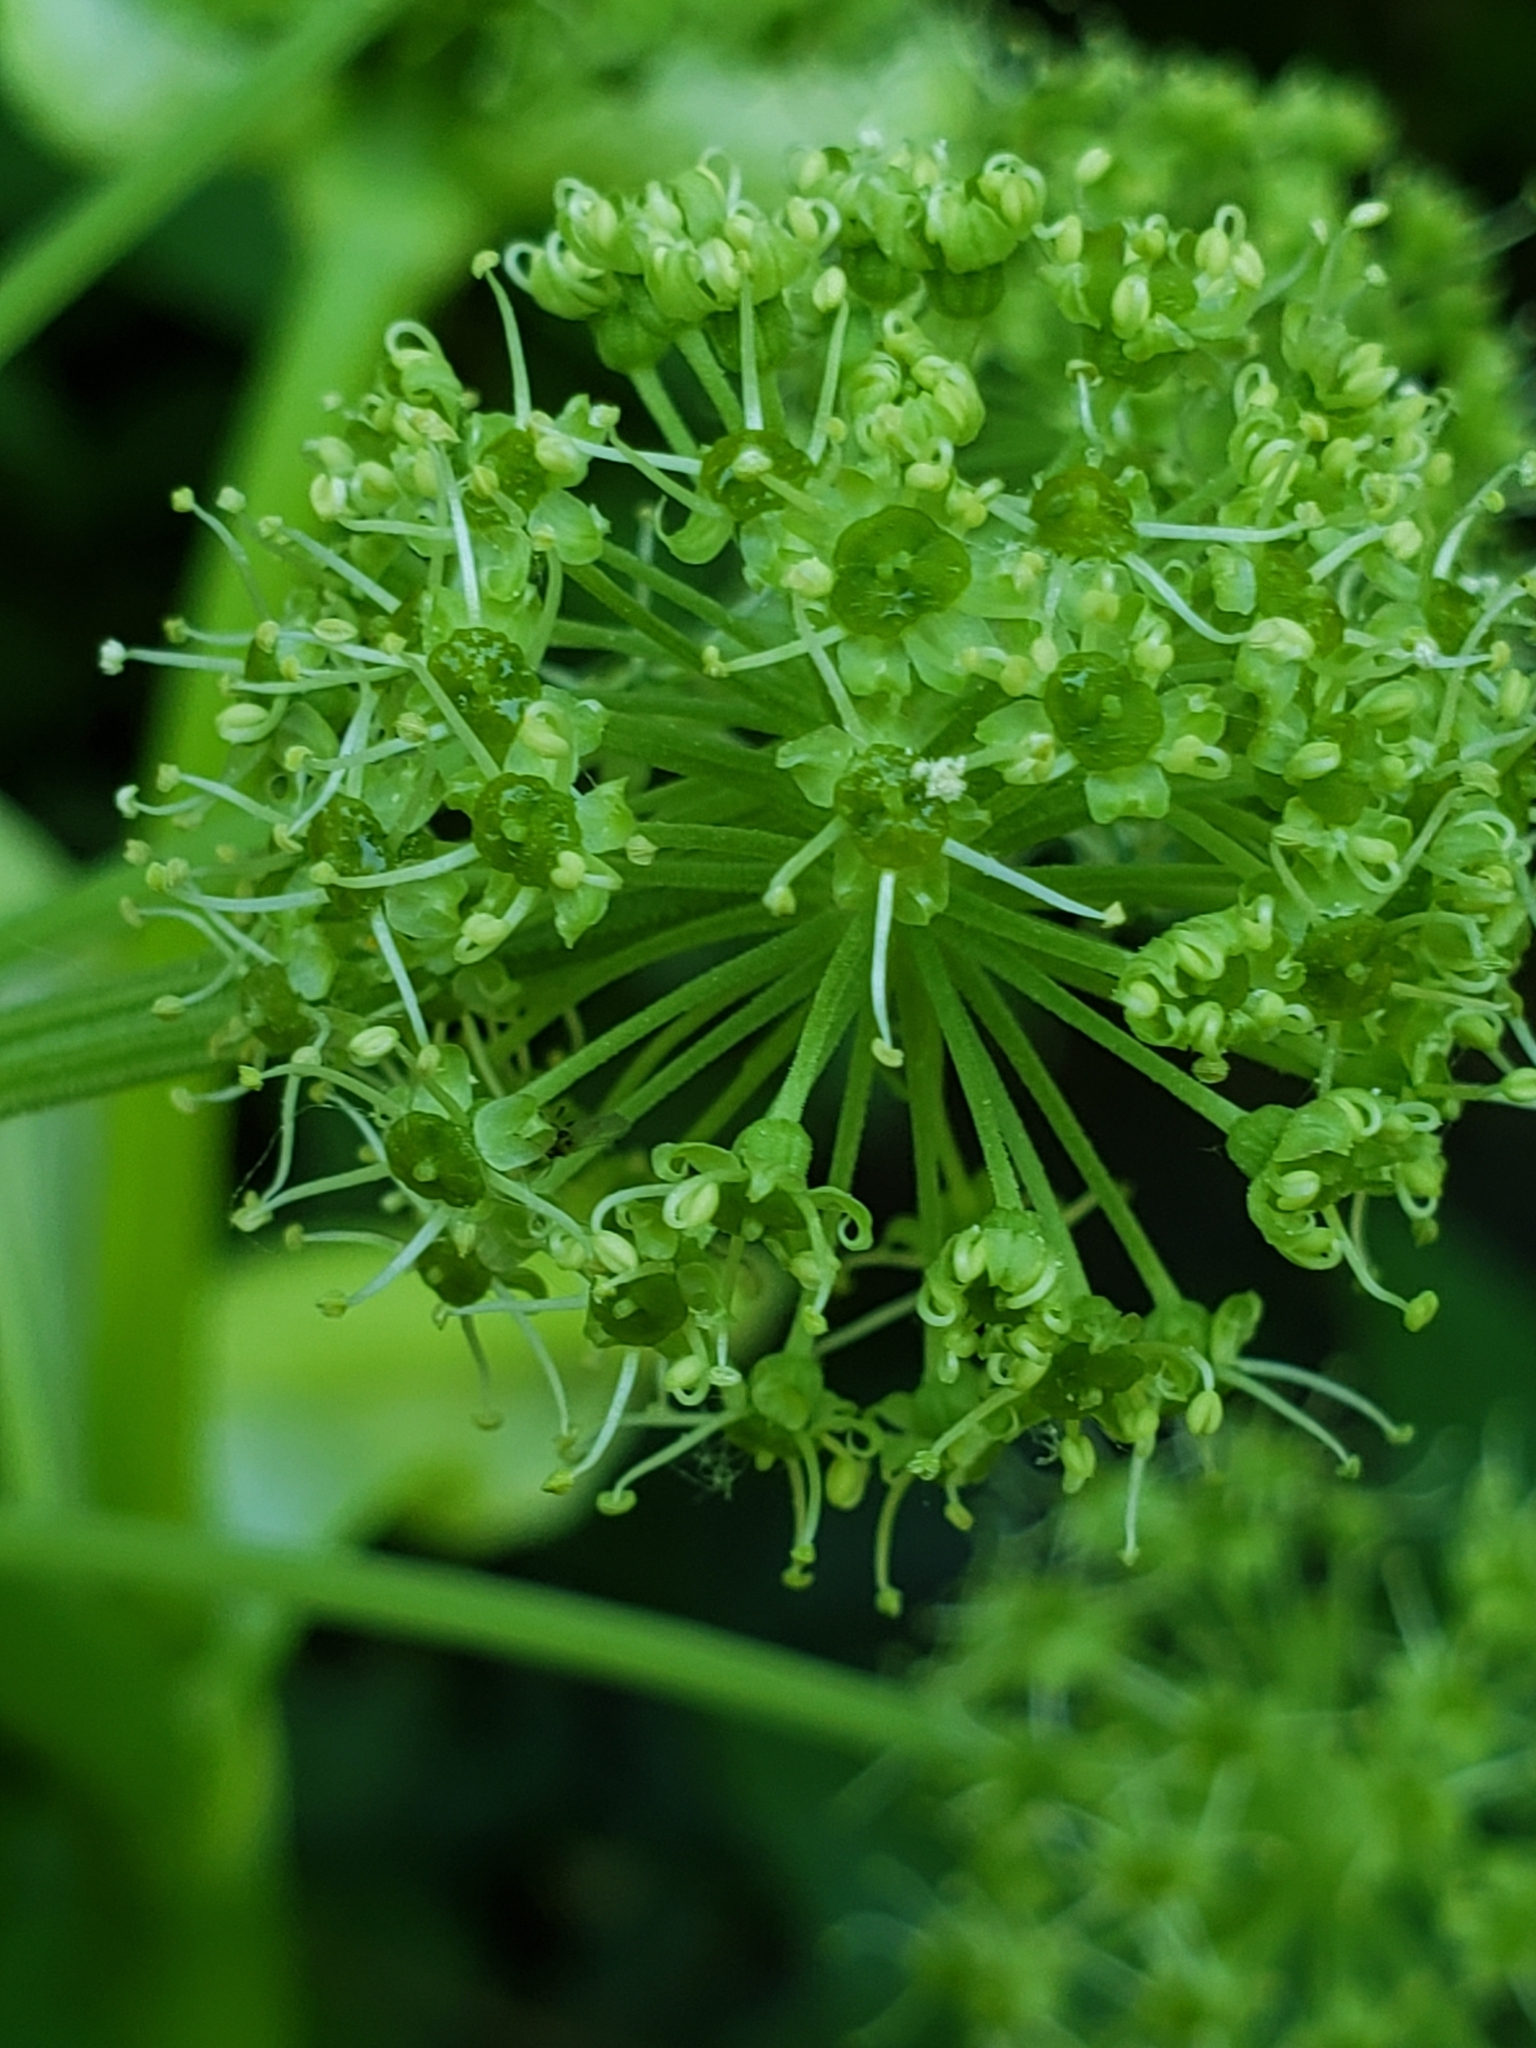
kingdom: Plantae
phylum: Tracheophyta
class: Magnoliopsida
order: Apiales
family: Apiaceae
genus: Angelica
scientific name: Angelica atropurpurea
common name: Great angelica
